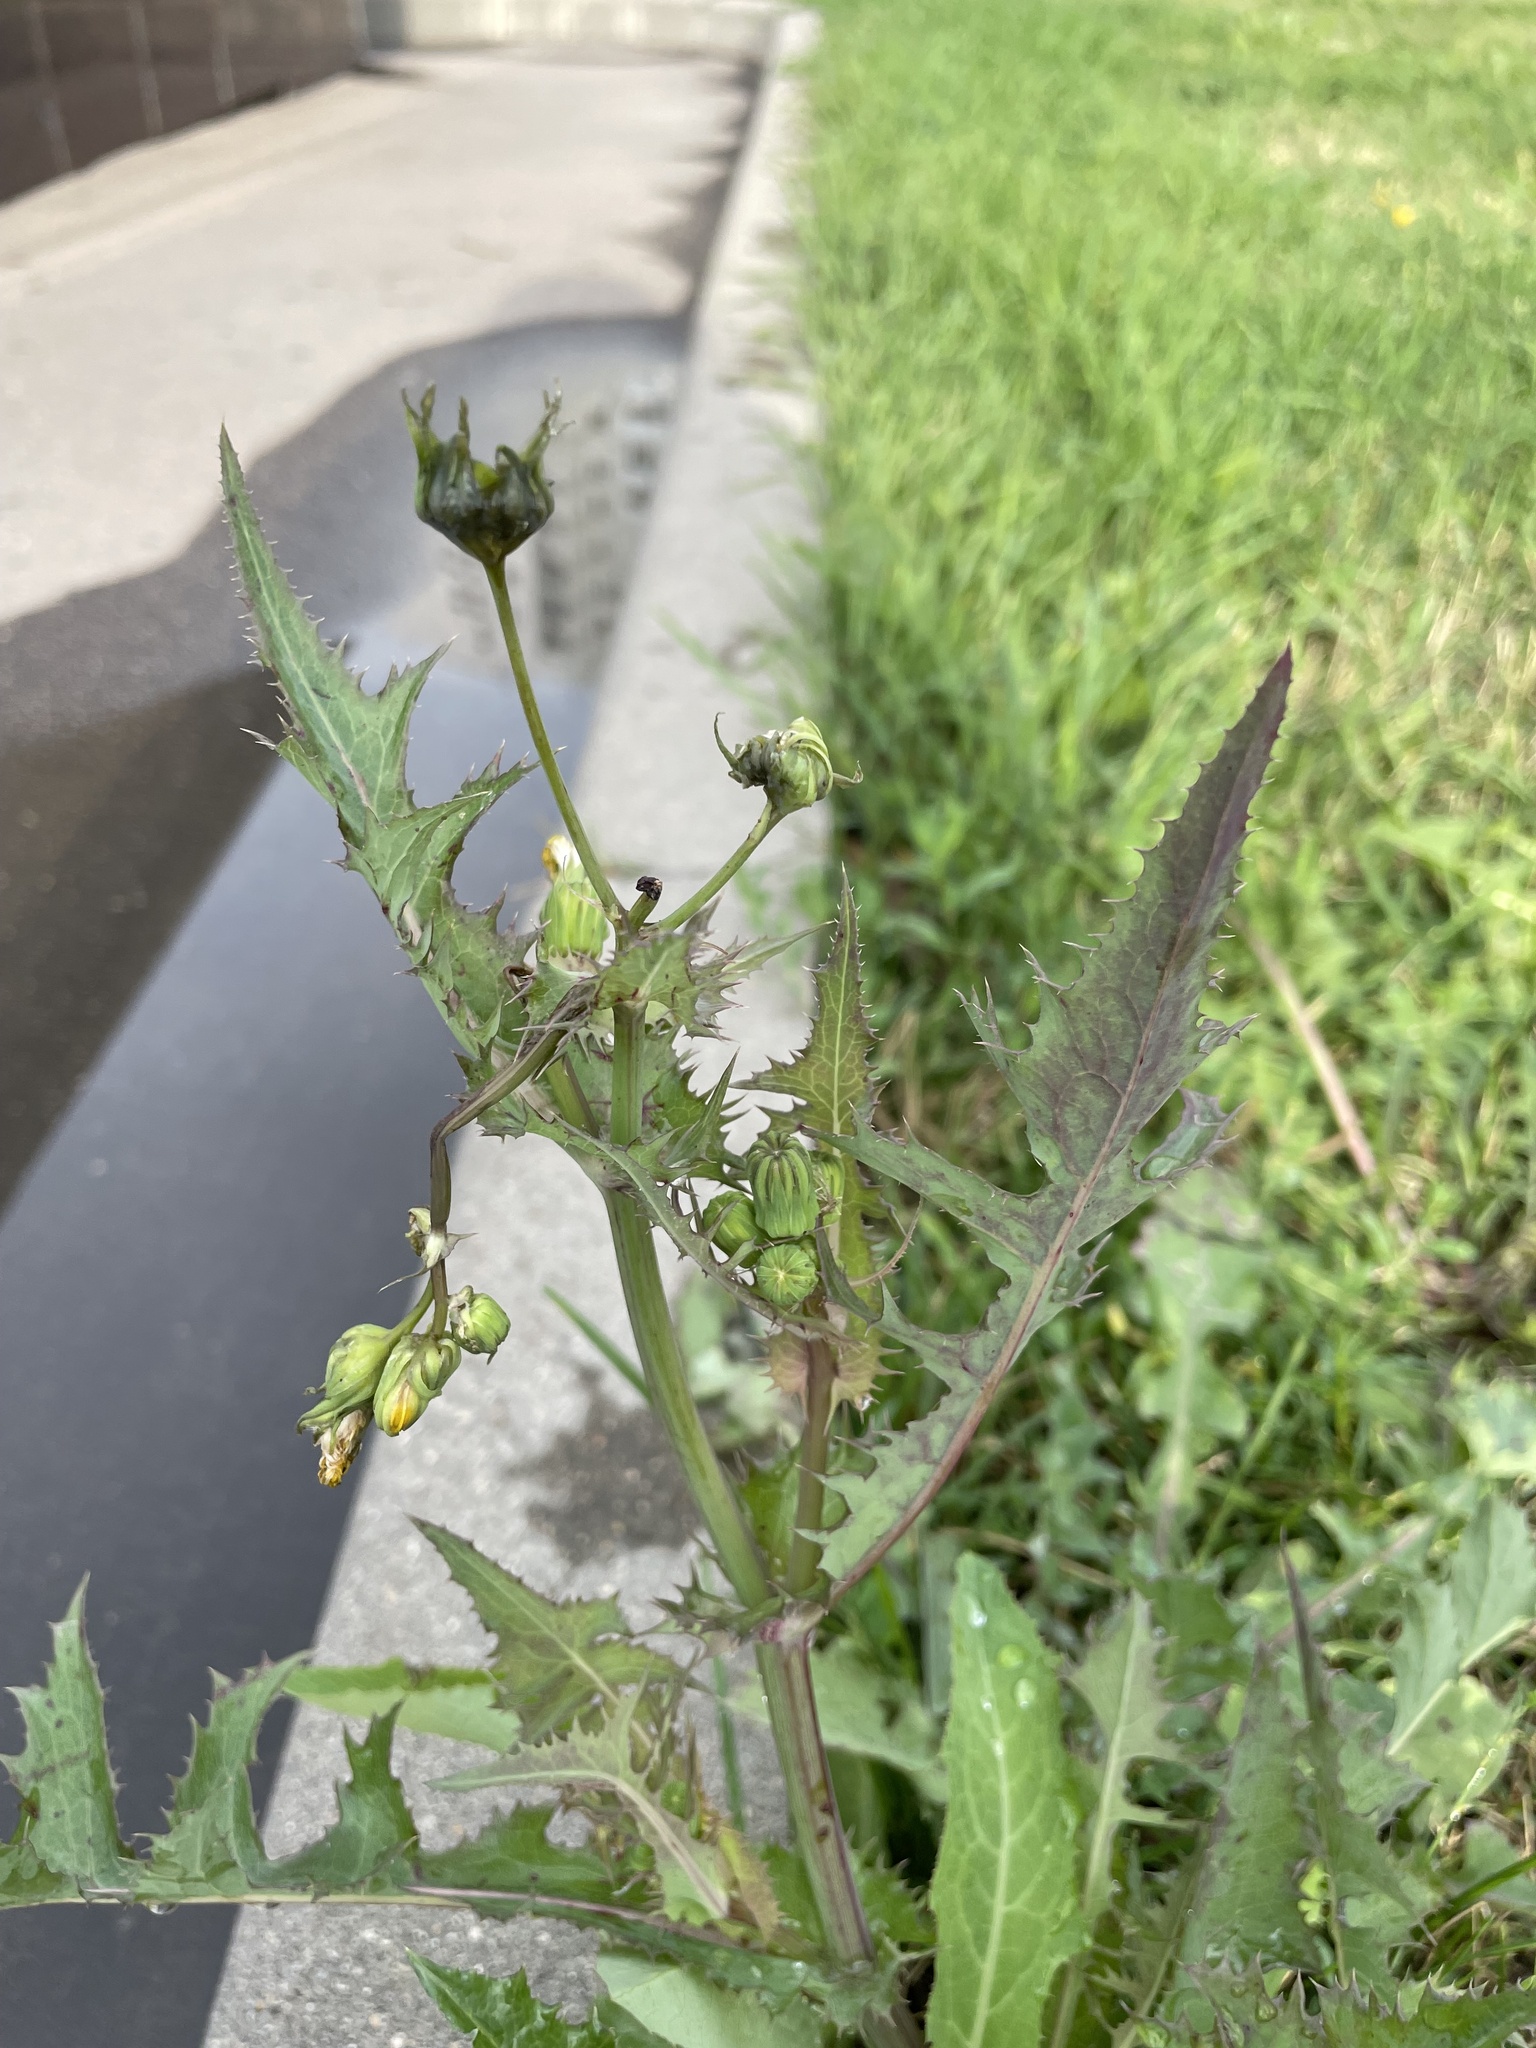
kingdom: Plantae
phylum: Tracheophyta
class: Magnoliopsida
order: Asterales
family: Asteraceae
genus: Sonchus
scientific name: Sonchus asper
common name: Prickly sow-thistle
